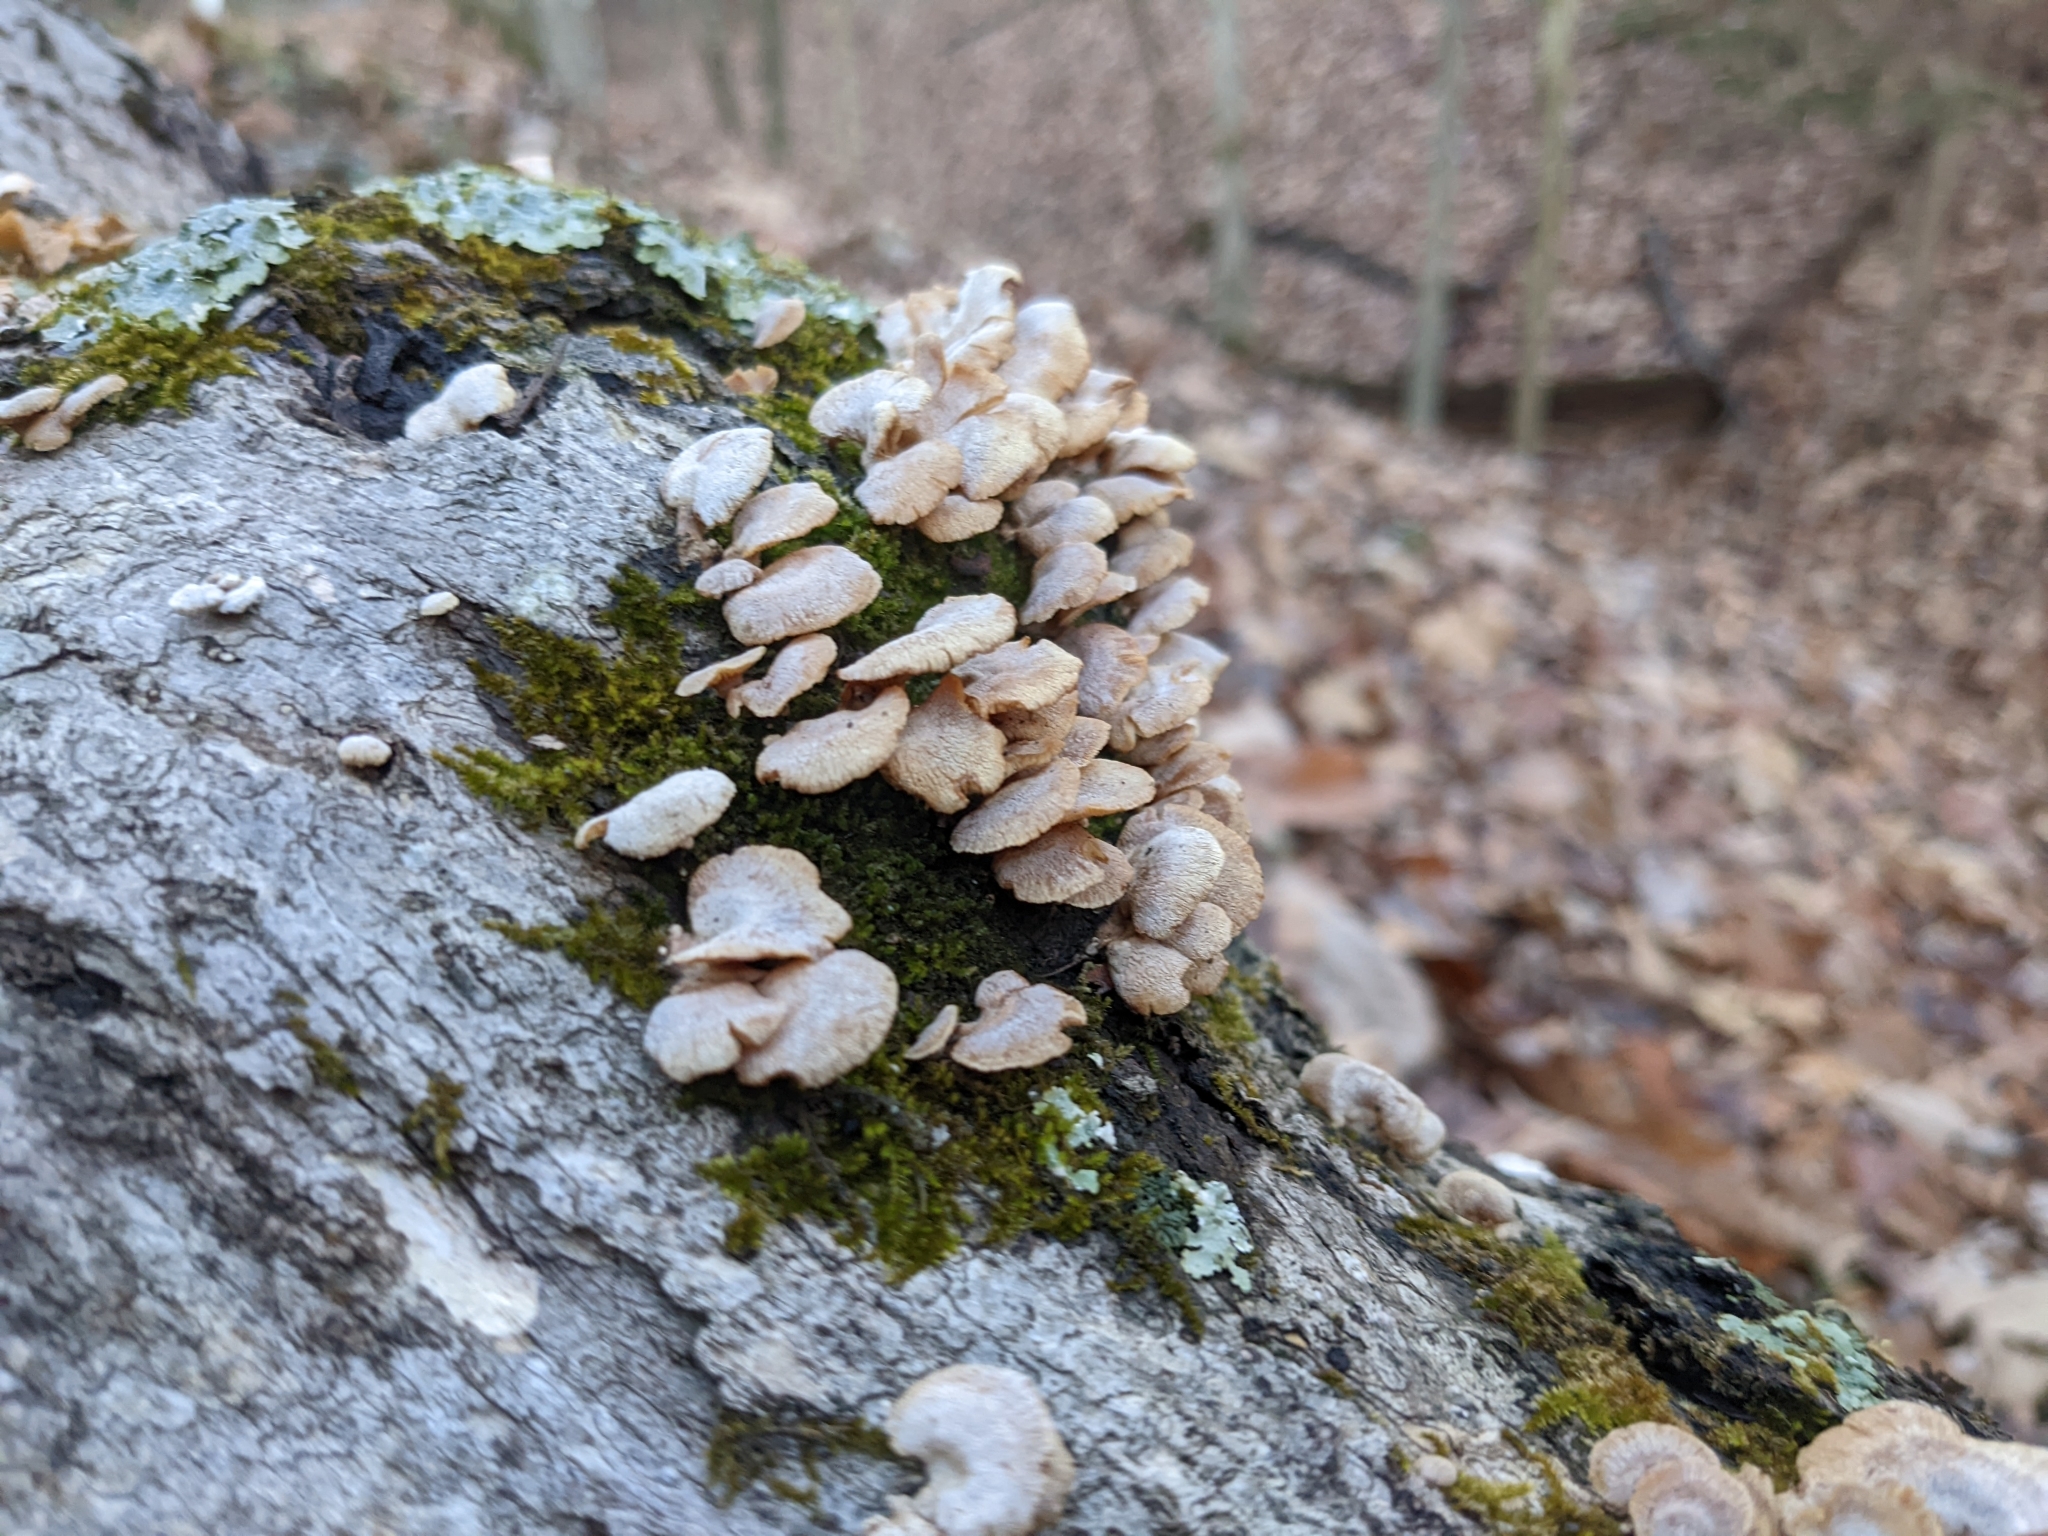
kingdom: Fungi
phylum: Basidiomycota
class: Agaricomycetes
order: Agaricales
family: Mycenaceae
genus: Panellus
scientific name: Panellus stipticus
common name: Bitter oysterling
